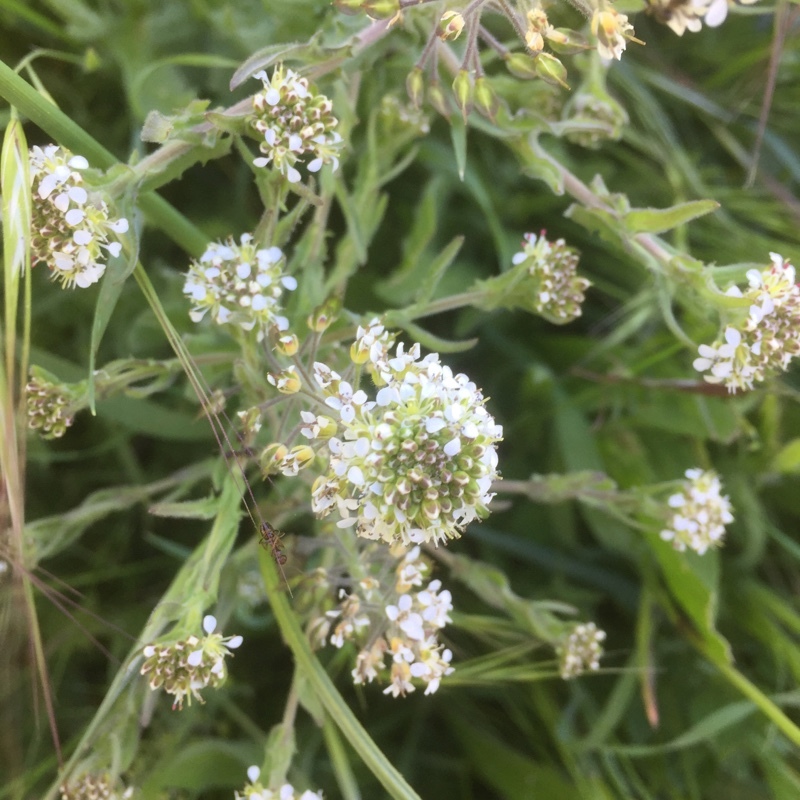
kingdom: Plantae
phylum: Tracheophyta
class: Magnoliopsida
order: Brassicales
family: Brassicaceae
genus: Lepidium
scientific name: Lepidium heterophyllum
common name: Smith's pepperwort
